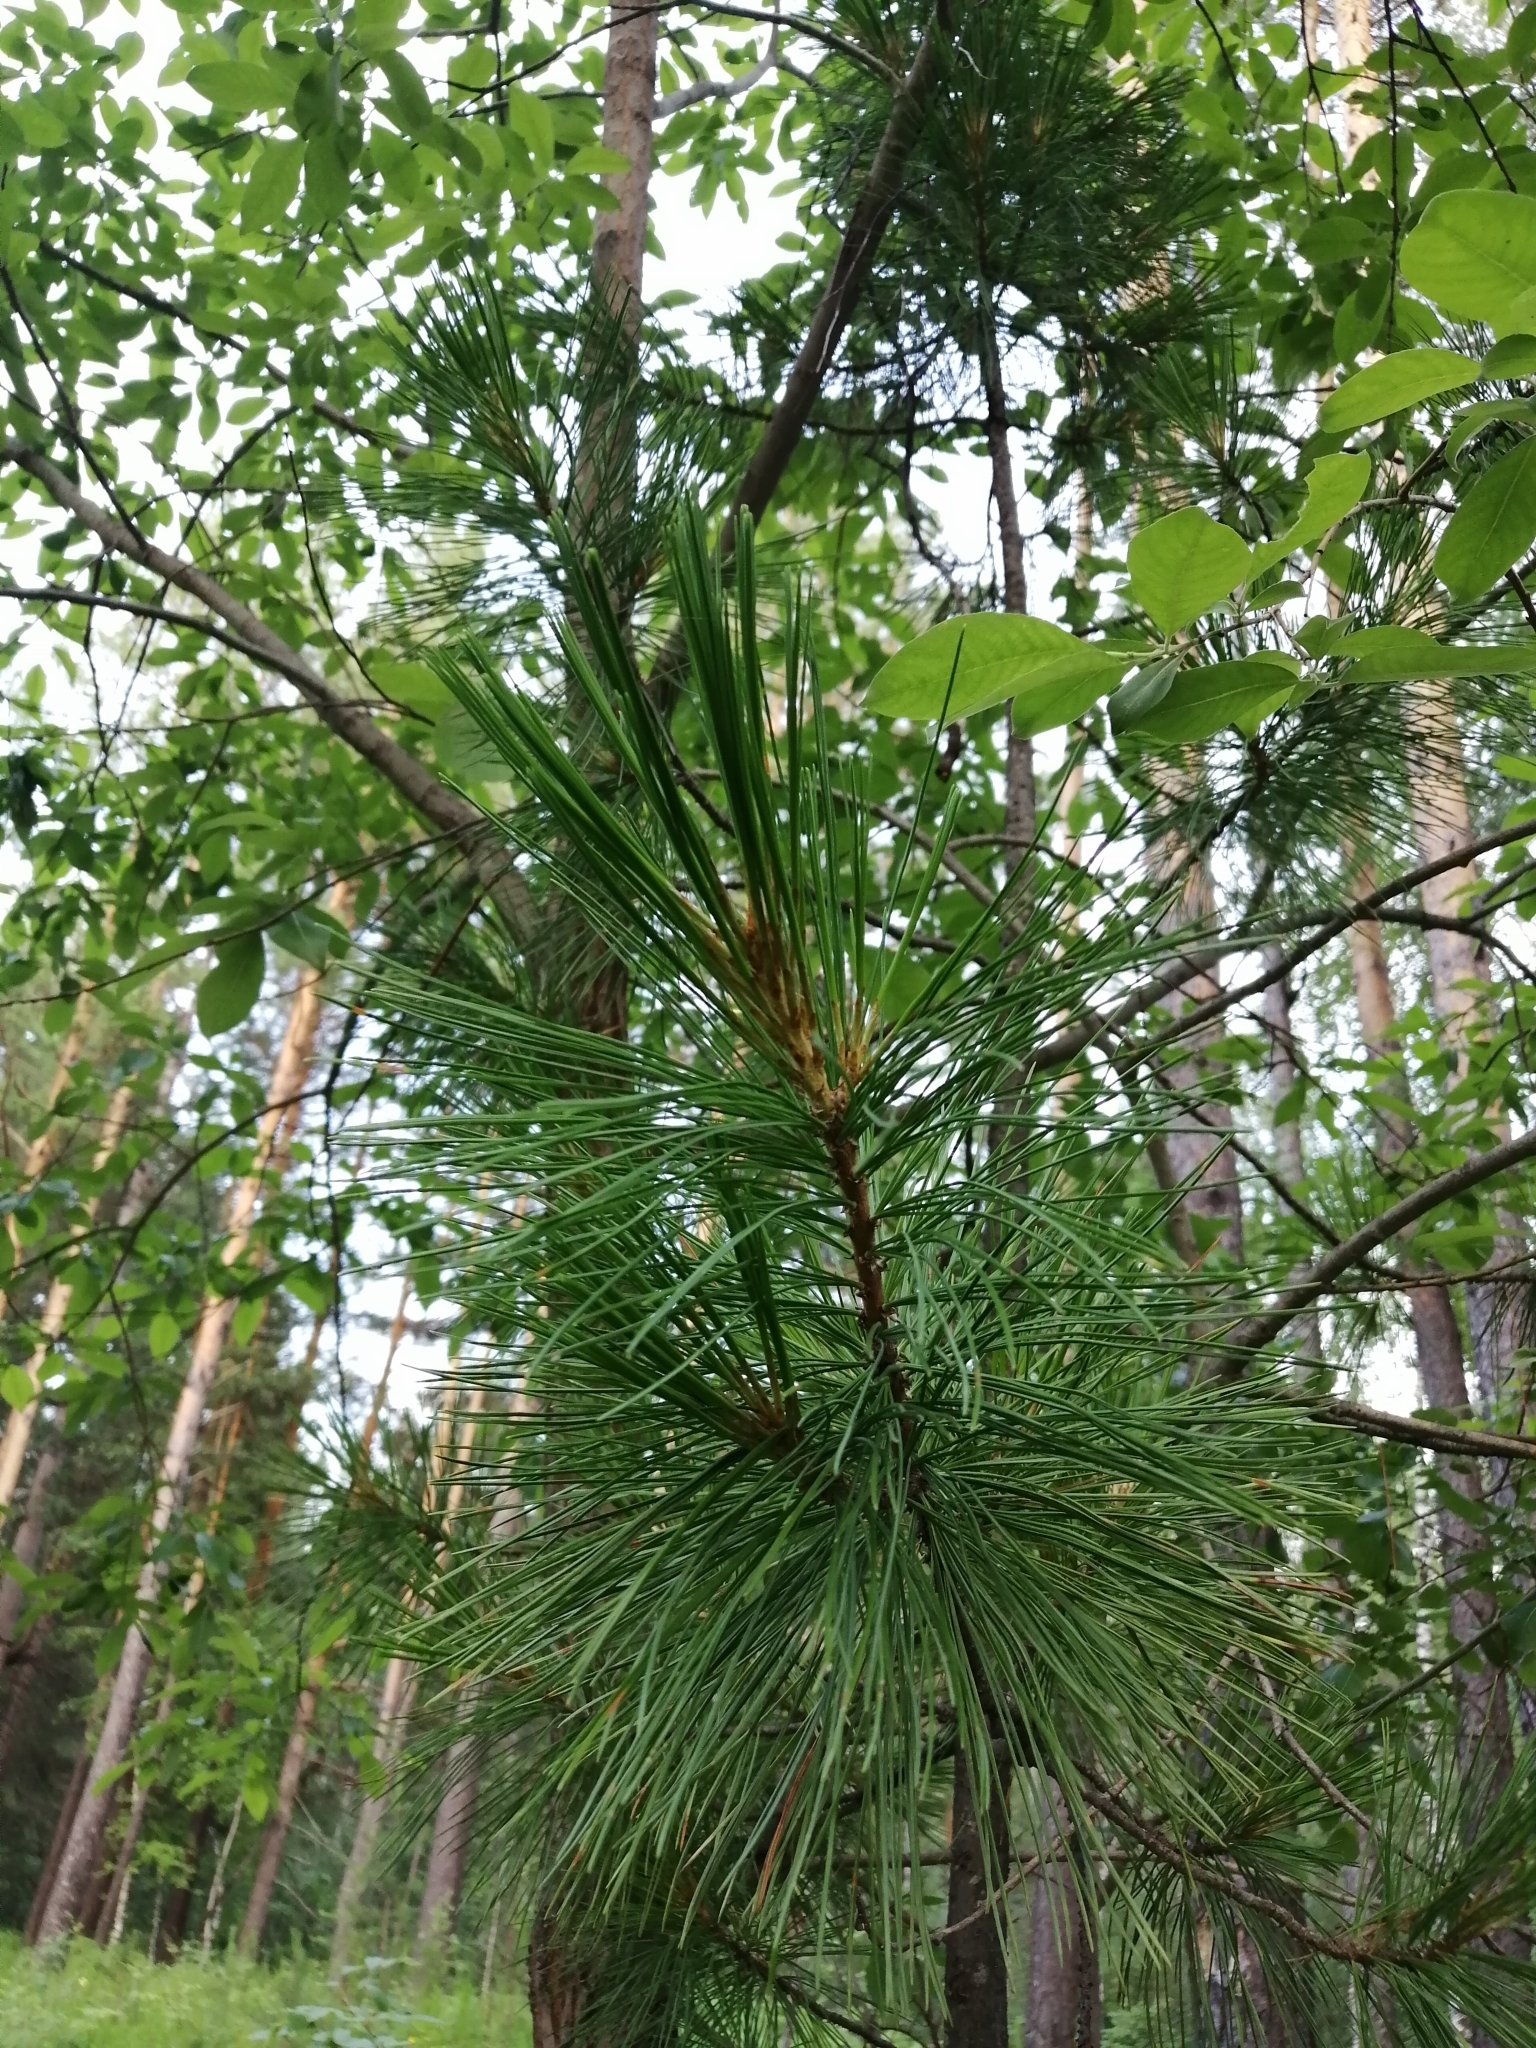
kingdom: Plantae
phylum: Tracheophyta
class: Pinopsida
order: Pinales
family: Pinaceae
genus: Pinus
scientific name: Pinus sibirica
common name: Siberian pine
